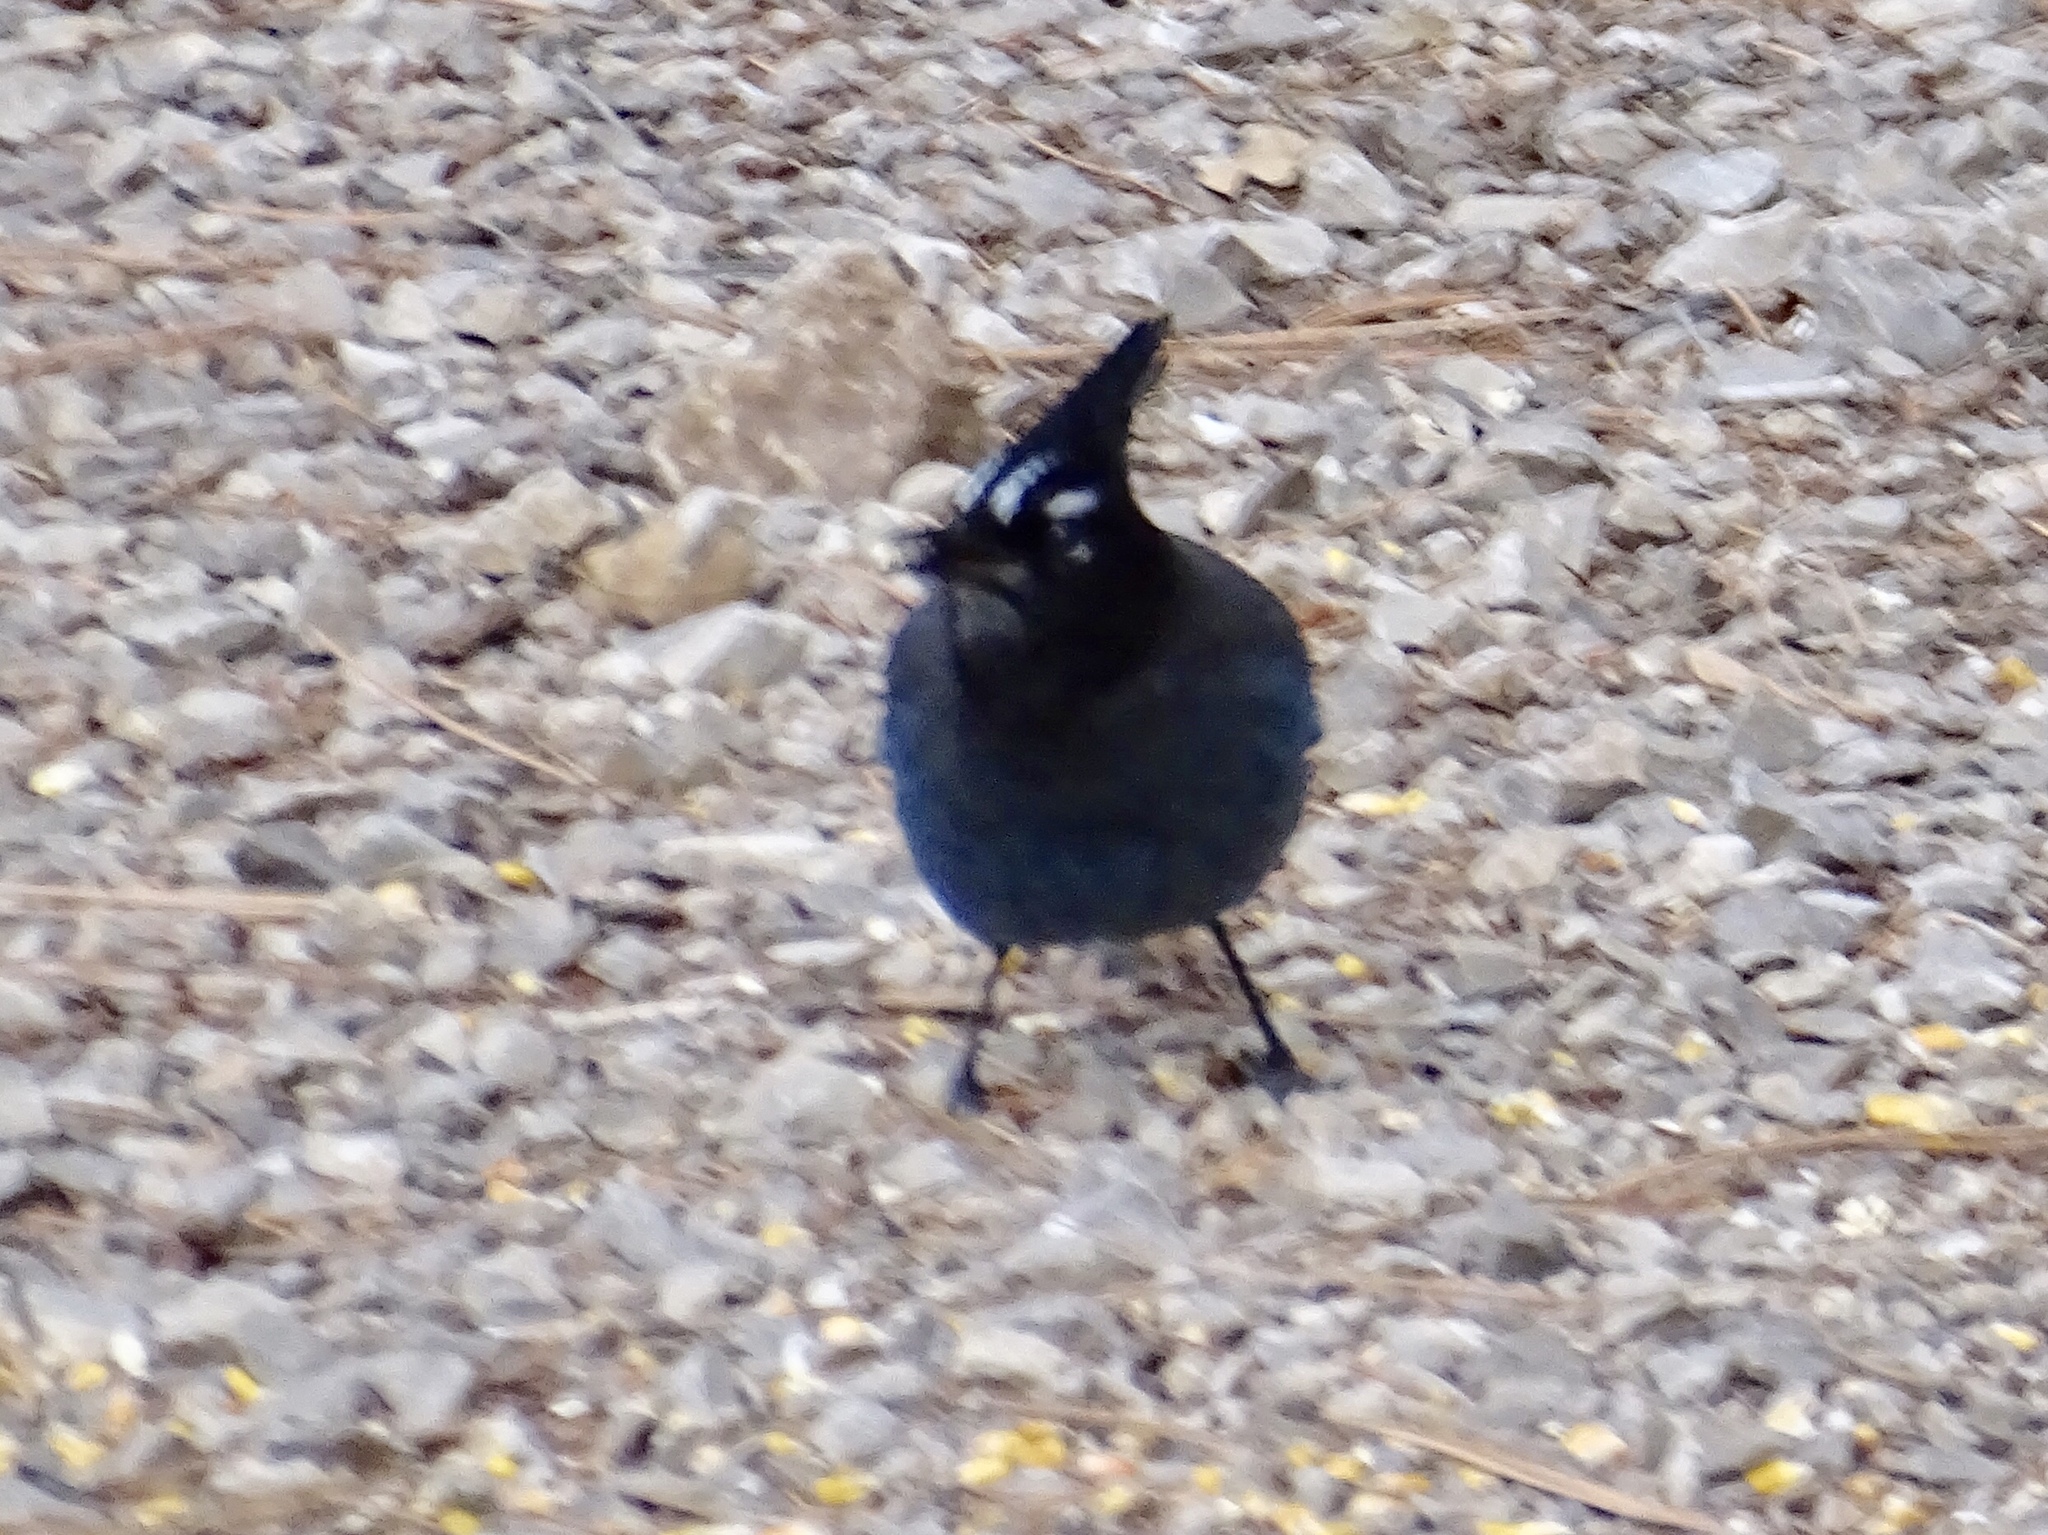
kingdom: Animalia
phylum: Chordata
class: Aves
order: Passeriformes
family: Corvidae
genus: Cyanocitta
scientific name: Cyanocitta stelleri
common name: Steller's jay
